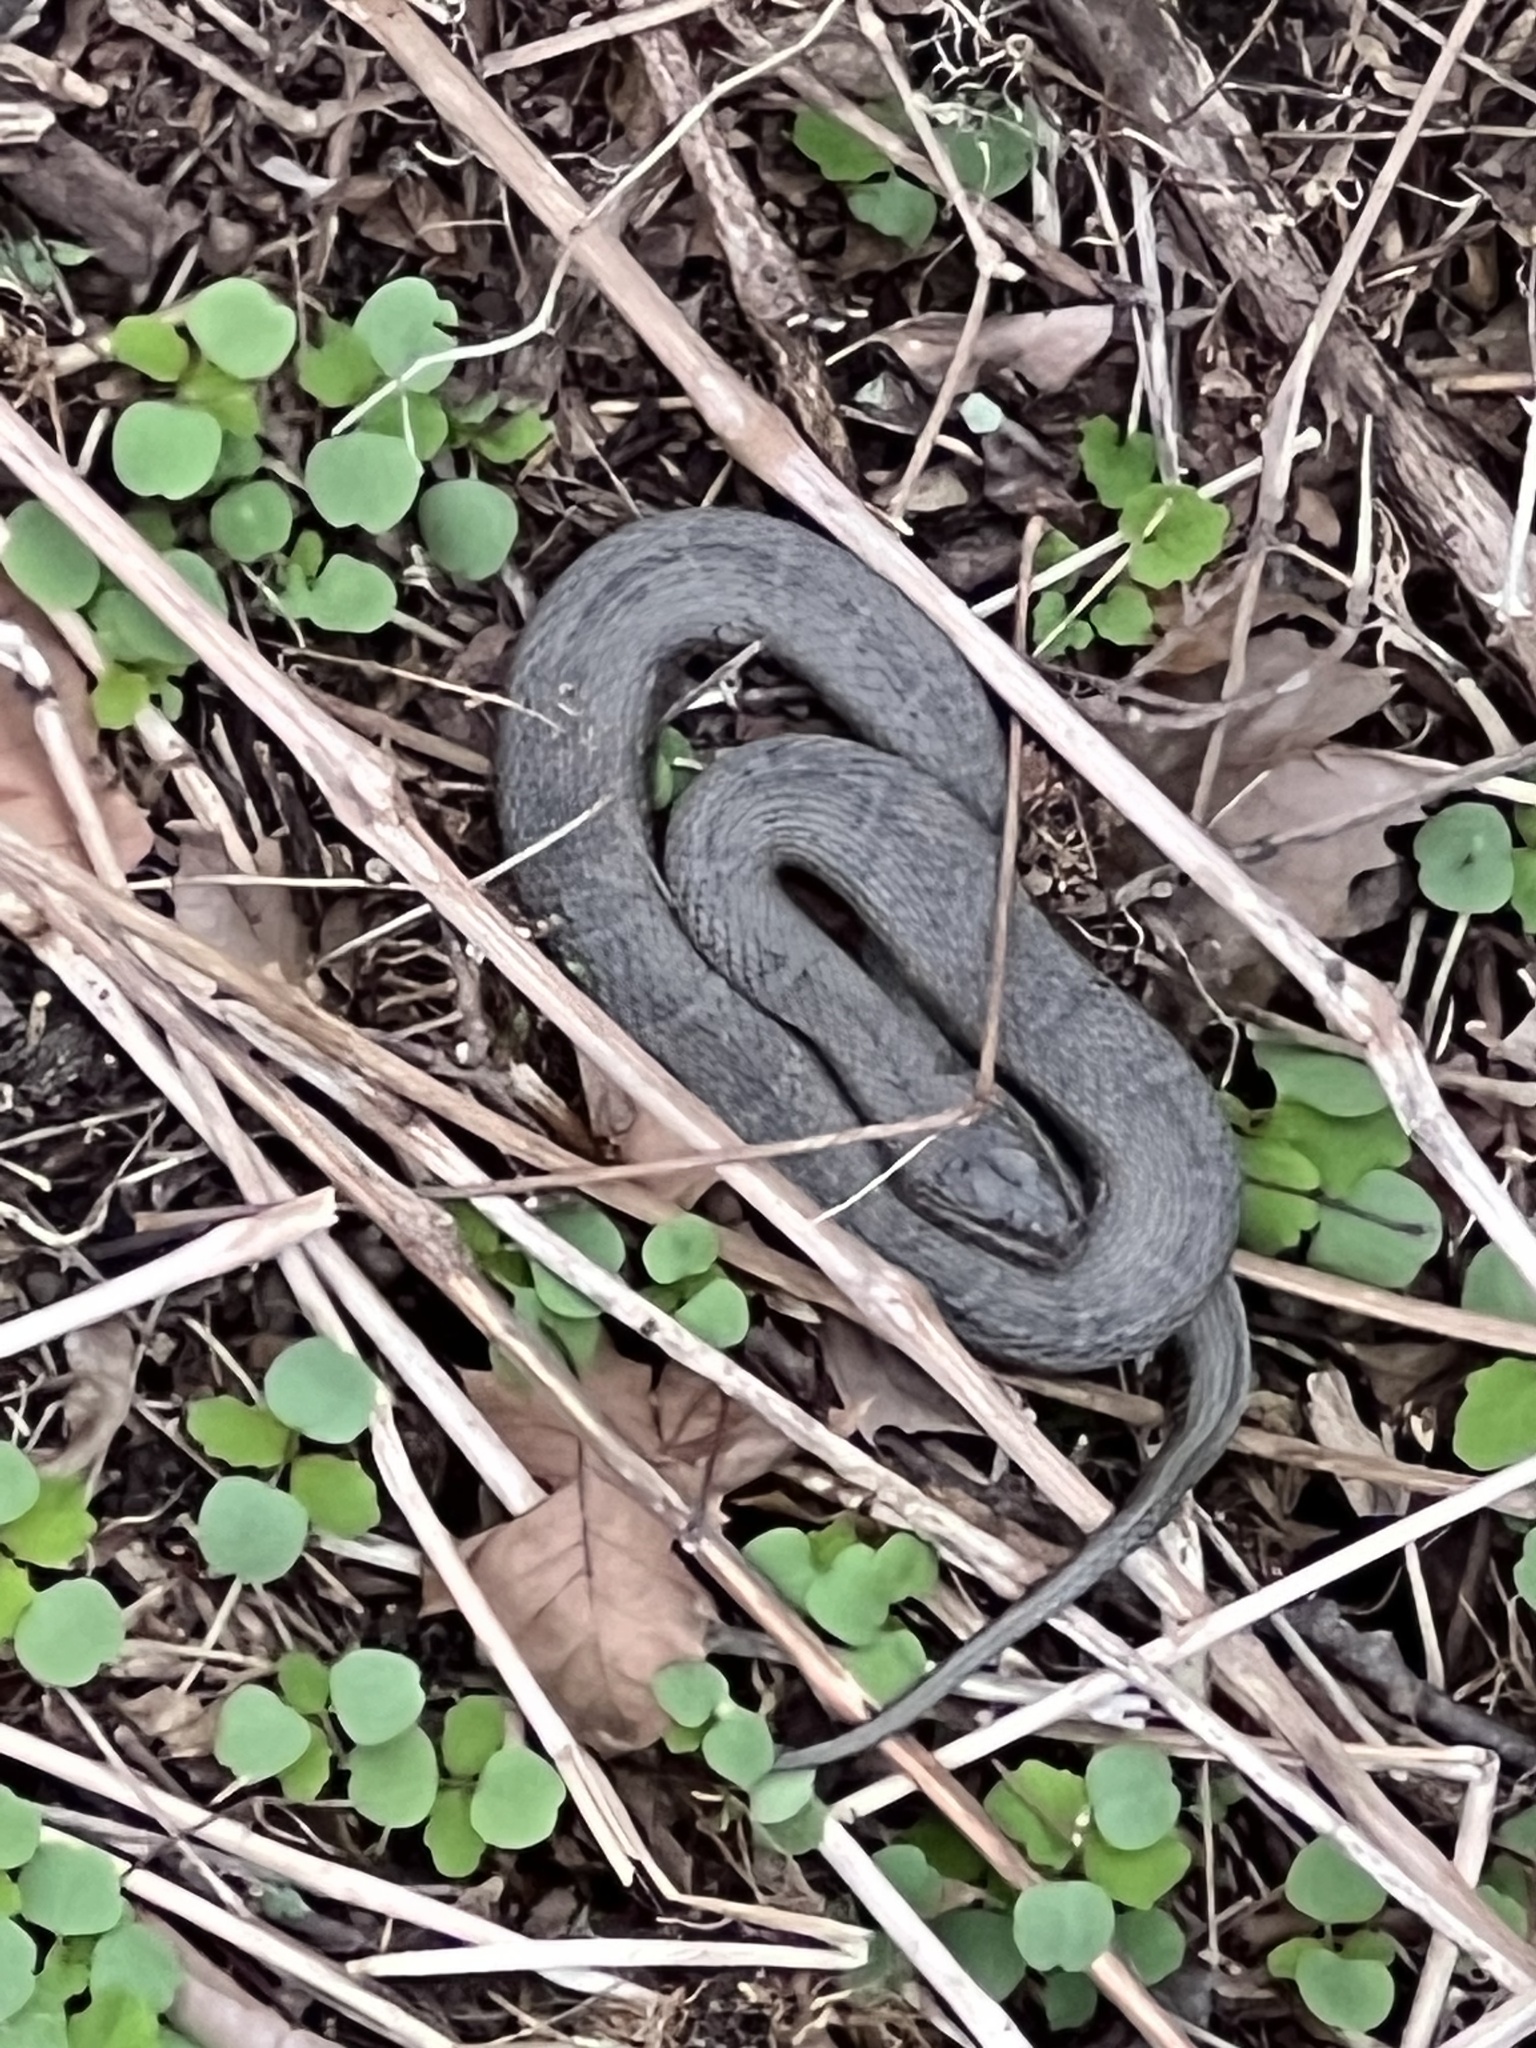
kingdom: Animalia
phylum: Chordata
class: Squamata
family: Colubridae
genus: Nerodia
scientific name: Nerodia sipedon
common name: Northern water snake
